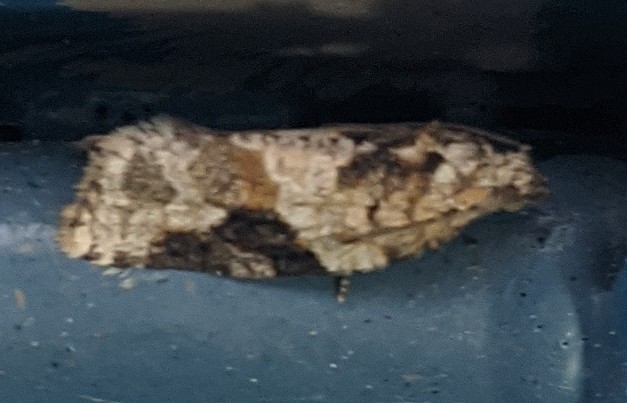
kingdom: Animalia
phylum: Arthropoda
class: Insecta
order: Lepidoptera
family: Tortricidae
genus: Argyrotaenia
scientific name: Argyrotaenia mariana
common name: Gray-banded leafroller moth
